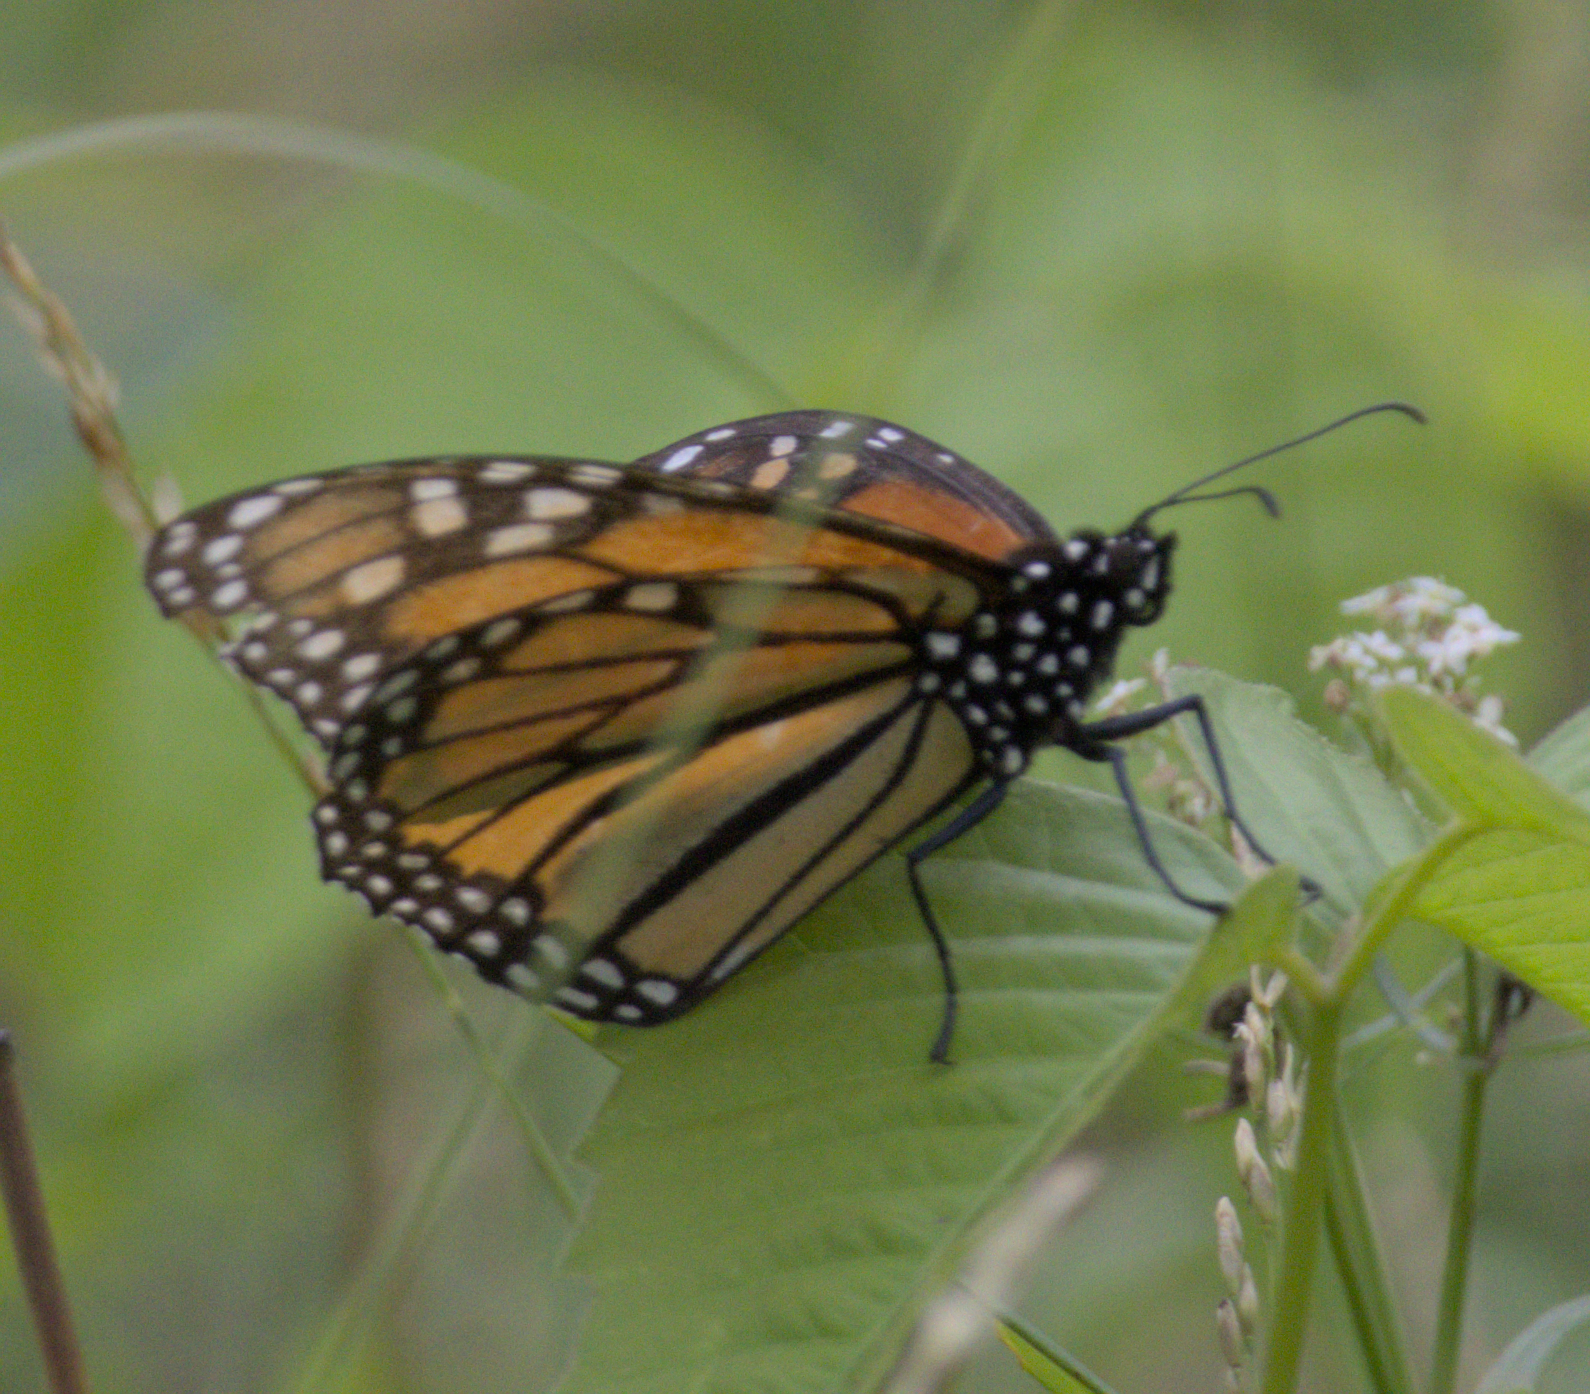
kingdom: Animalia
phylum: Arthropoda
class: Insecta
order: Lepidoptera
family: Nymphalidae
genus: Danaus
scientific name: Danaus plexippus
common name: Monarch
